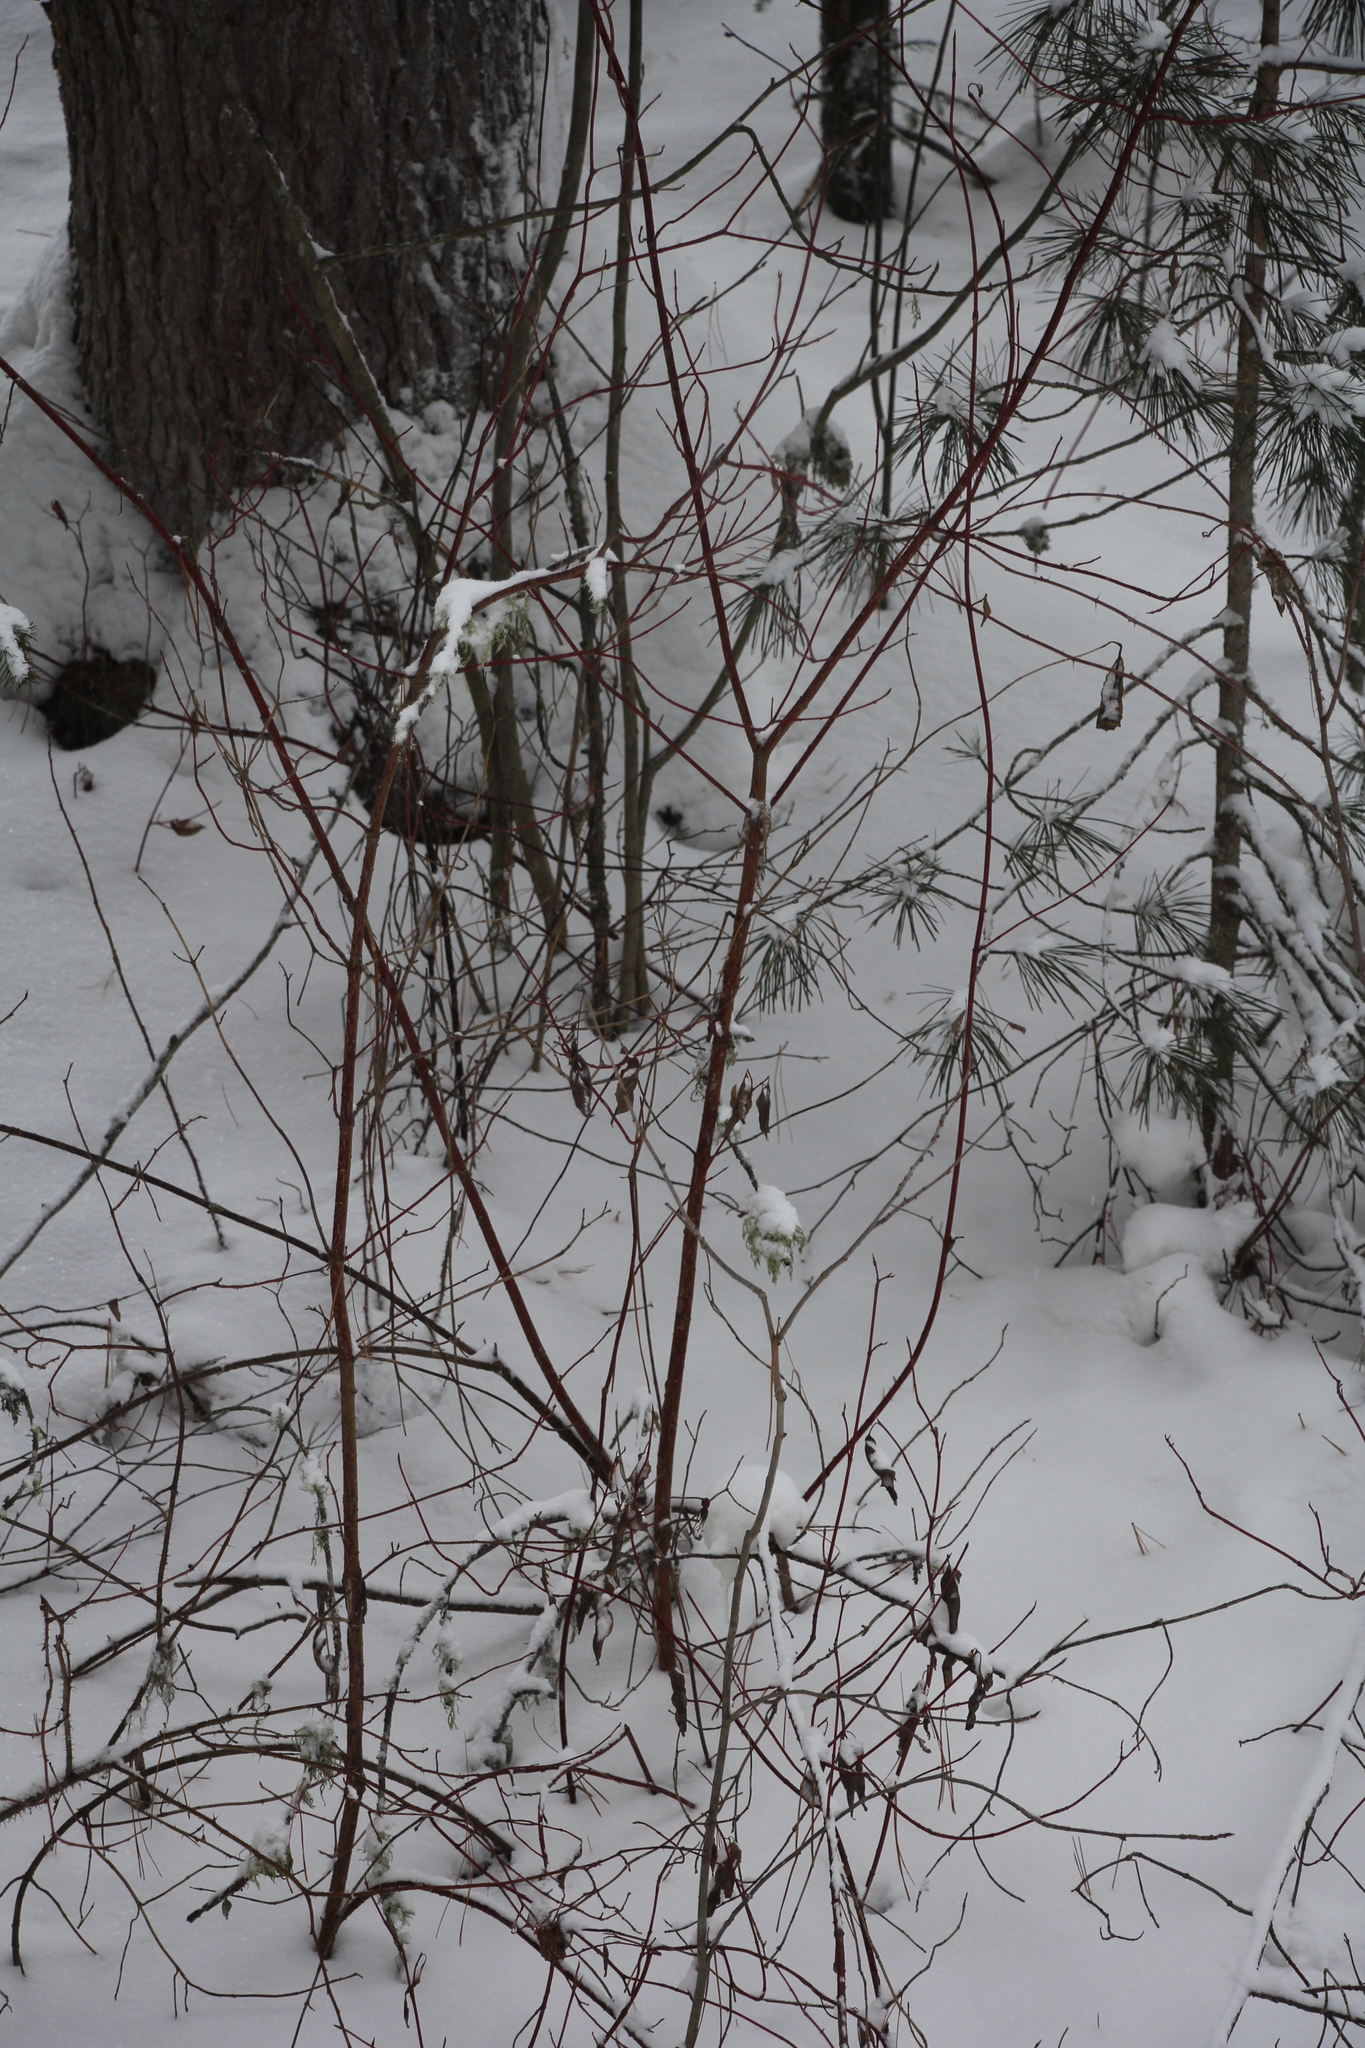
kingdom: Plantae
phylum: Tracheophyta
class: Magnoliopsida
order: Cornales
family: Cornaceae
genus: Cornus
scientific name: Cornus alba
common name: White dogwood
